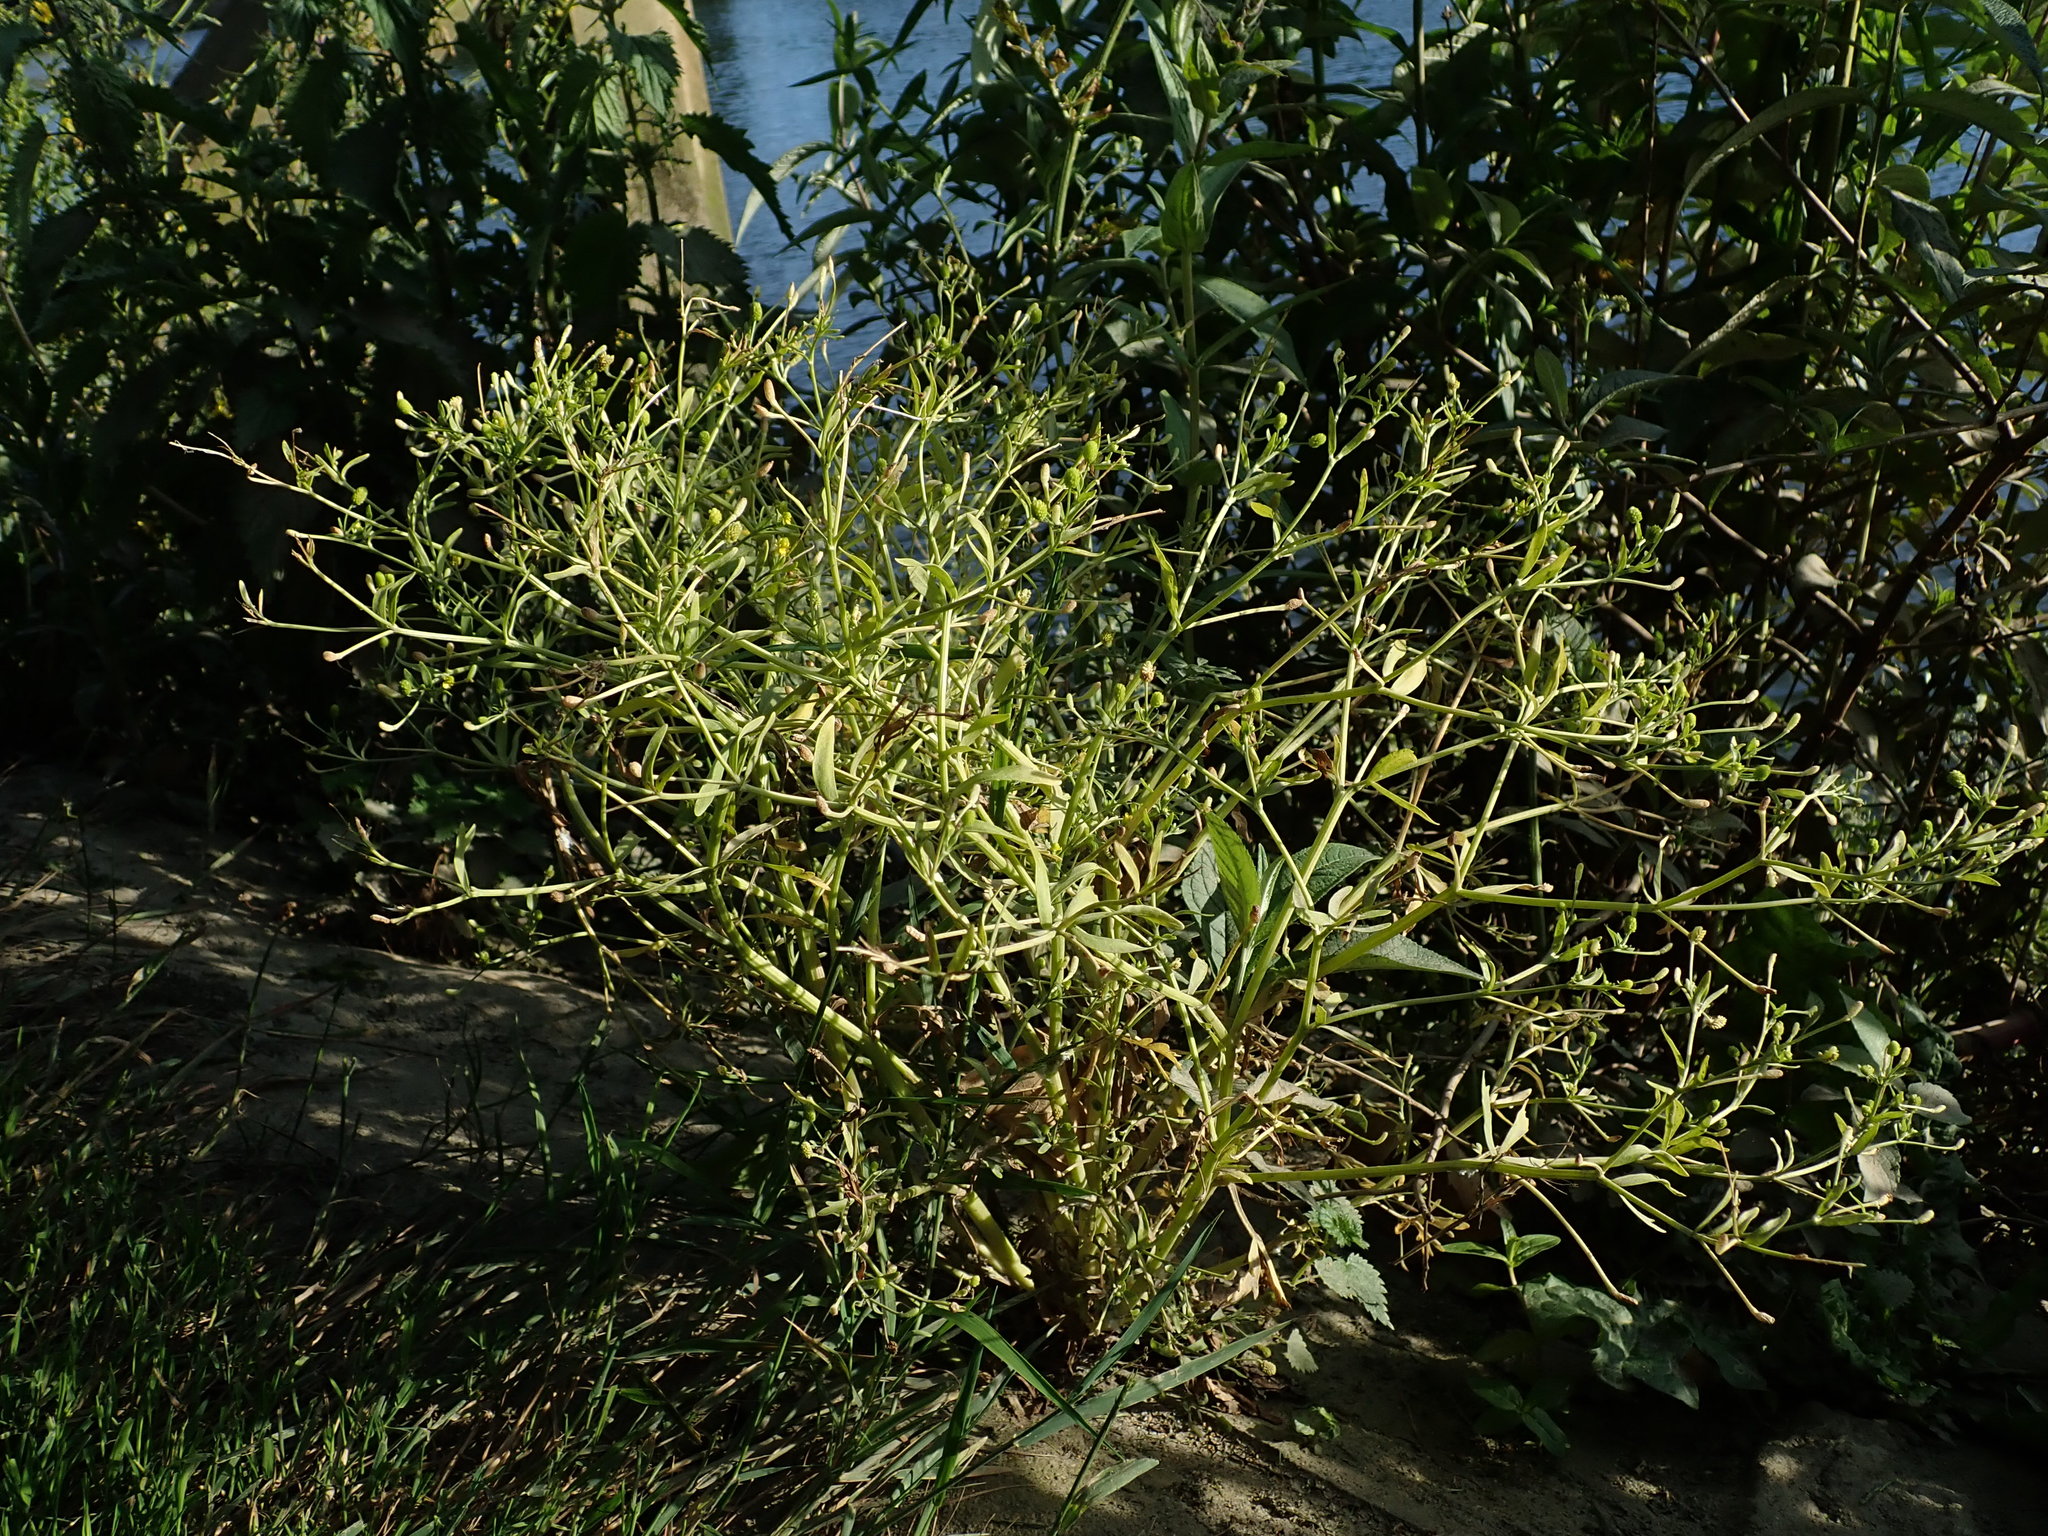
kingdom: Plantae
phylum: Tracheophyta
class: Magnoliopsida
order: Ranunculales
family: Ranunculaceae
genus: Ranunculus
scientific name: Ranunculus sceleratus
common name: Celery-leaved buttercup
